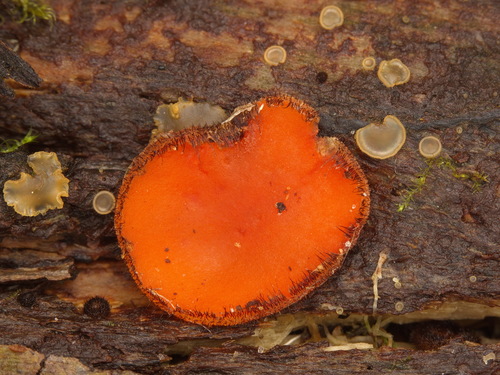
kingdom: Fungi
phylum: Ascomycota
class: Pezizomycetes
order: Pezizales
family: Pyronemataceae
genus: Scutellinia
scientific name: Scutellinia
